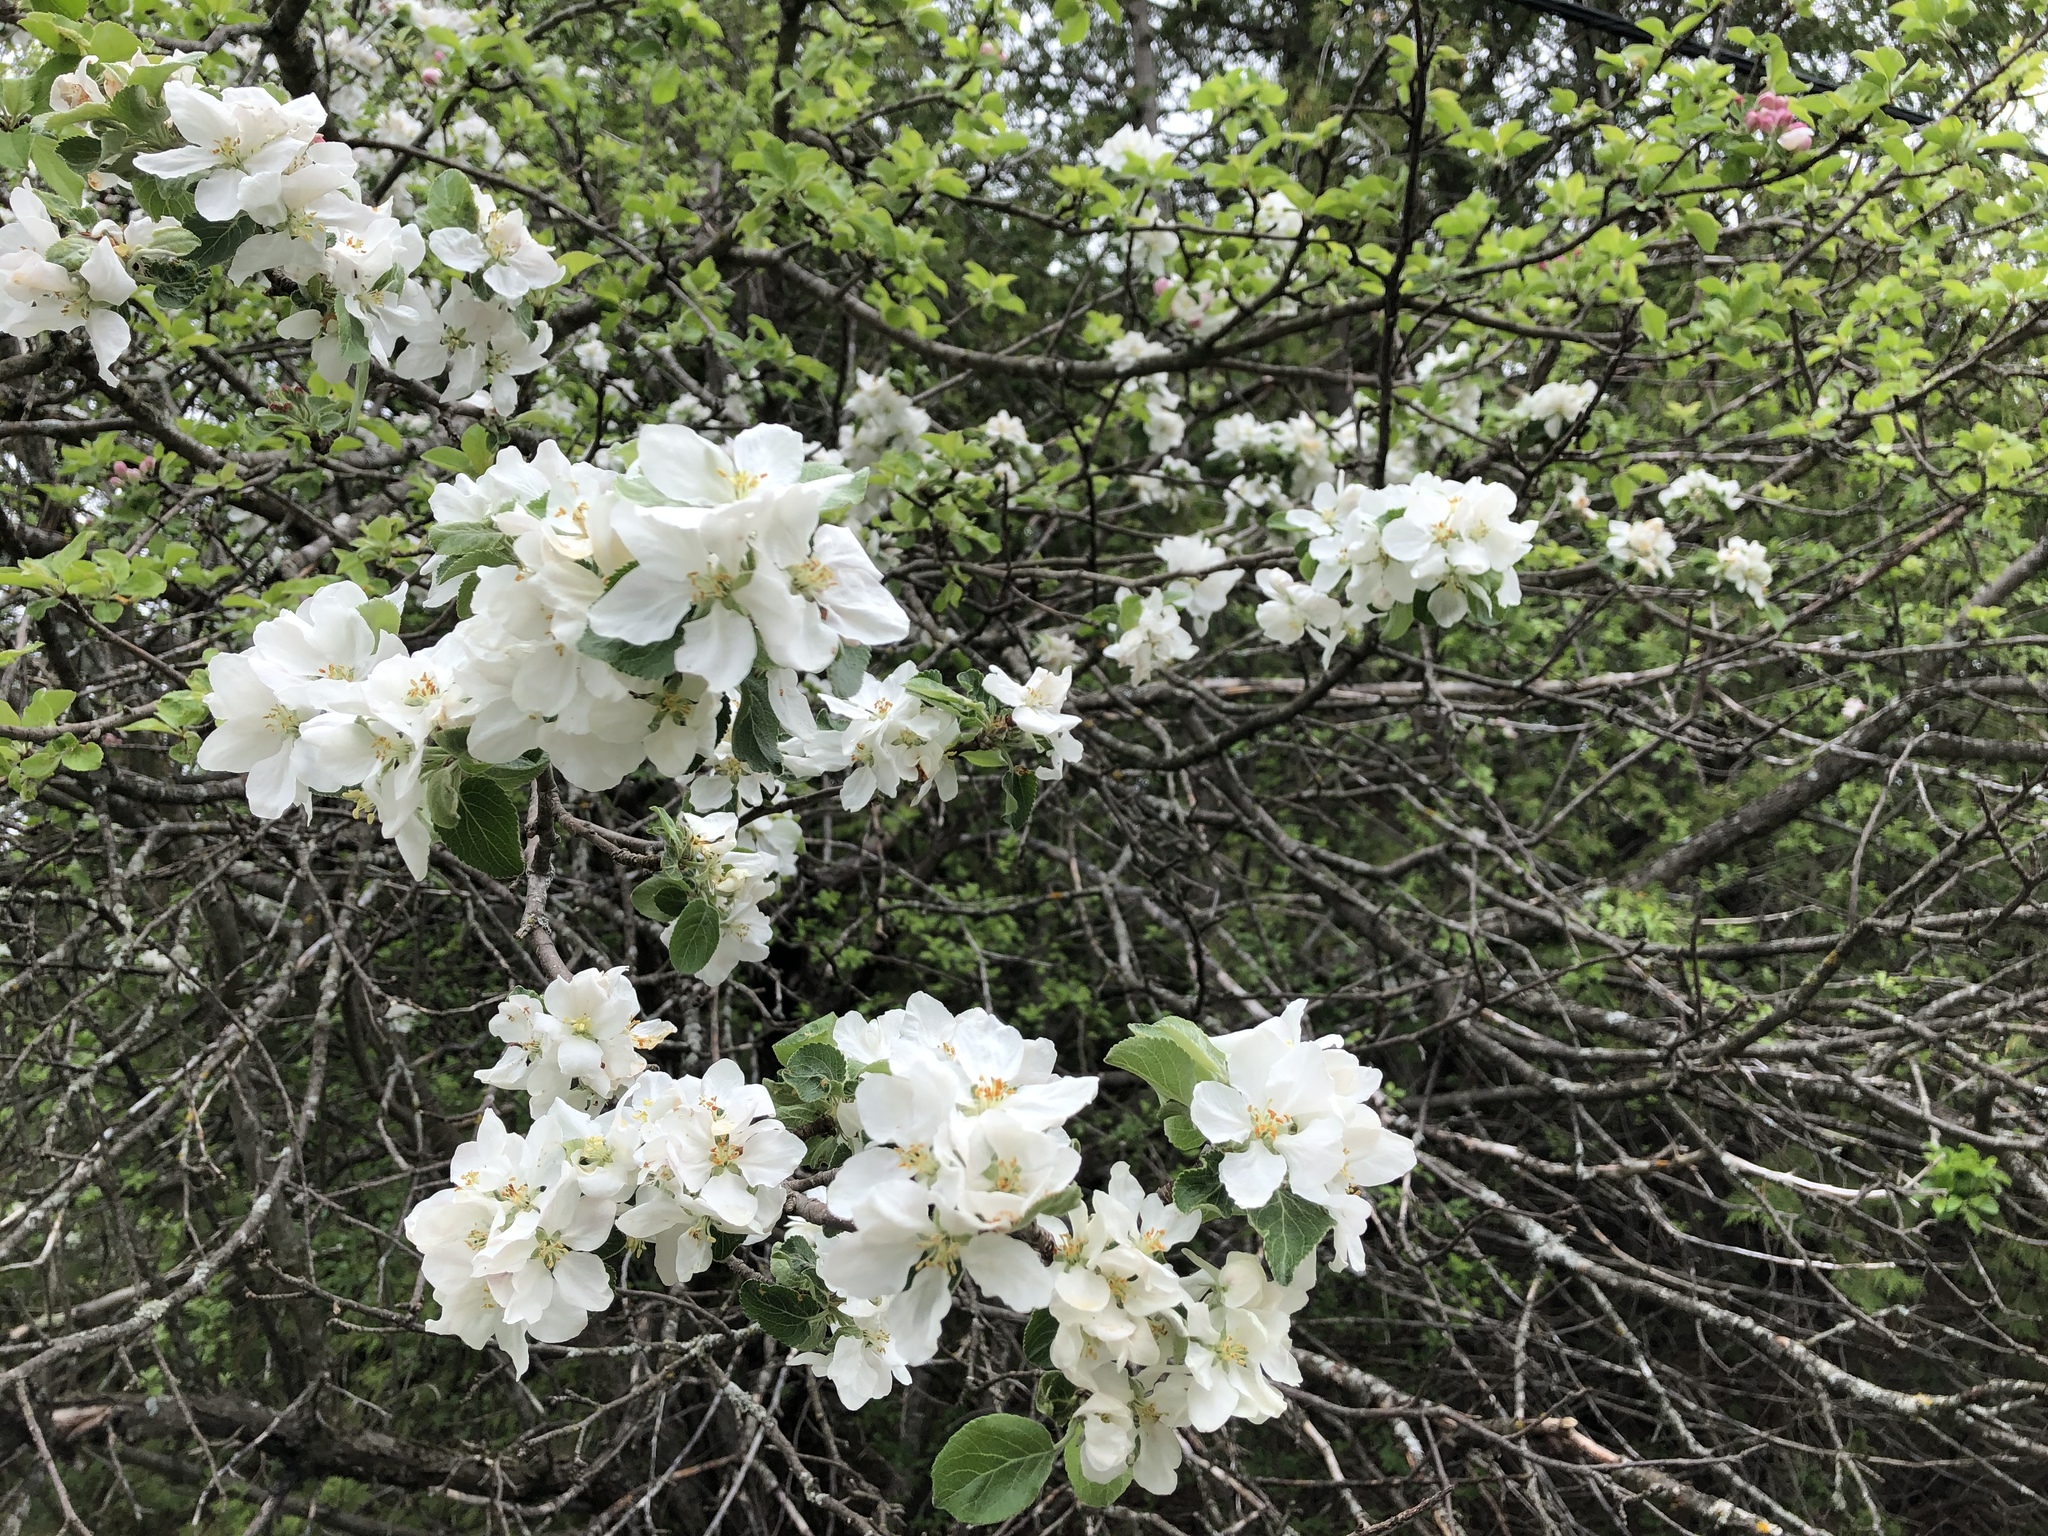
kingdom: Plantae
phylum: Tracheophyta
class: Magnoliopsida
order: Rosales
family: Rosaceae
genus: Malus
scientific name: Malus domestica
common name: Apple
